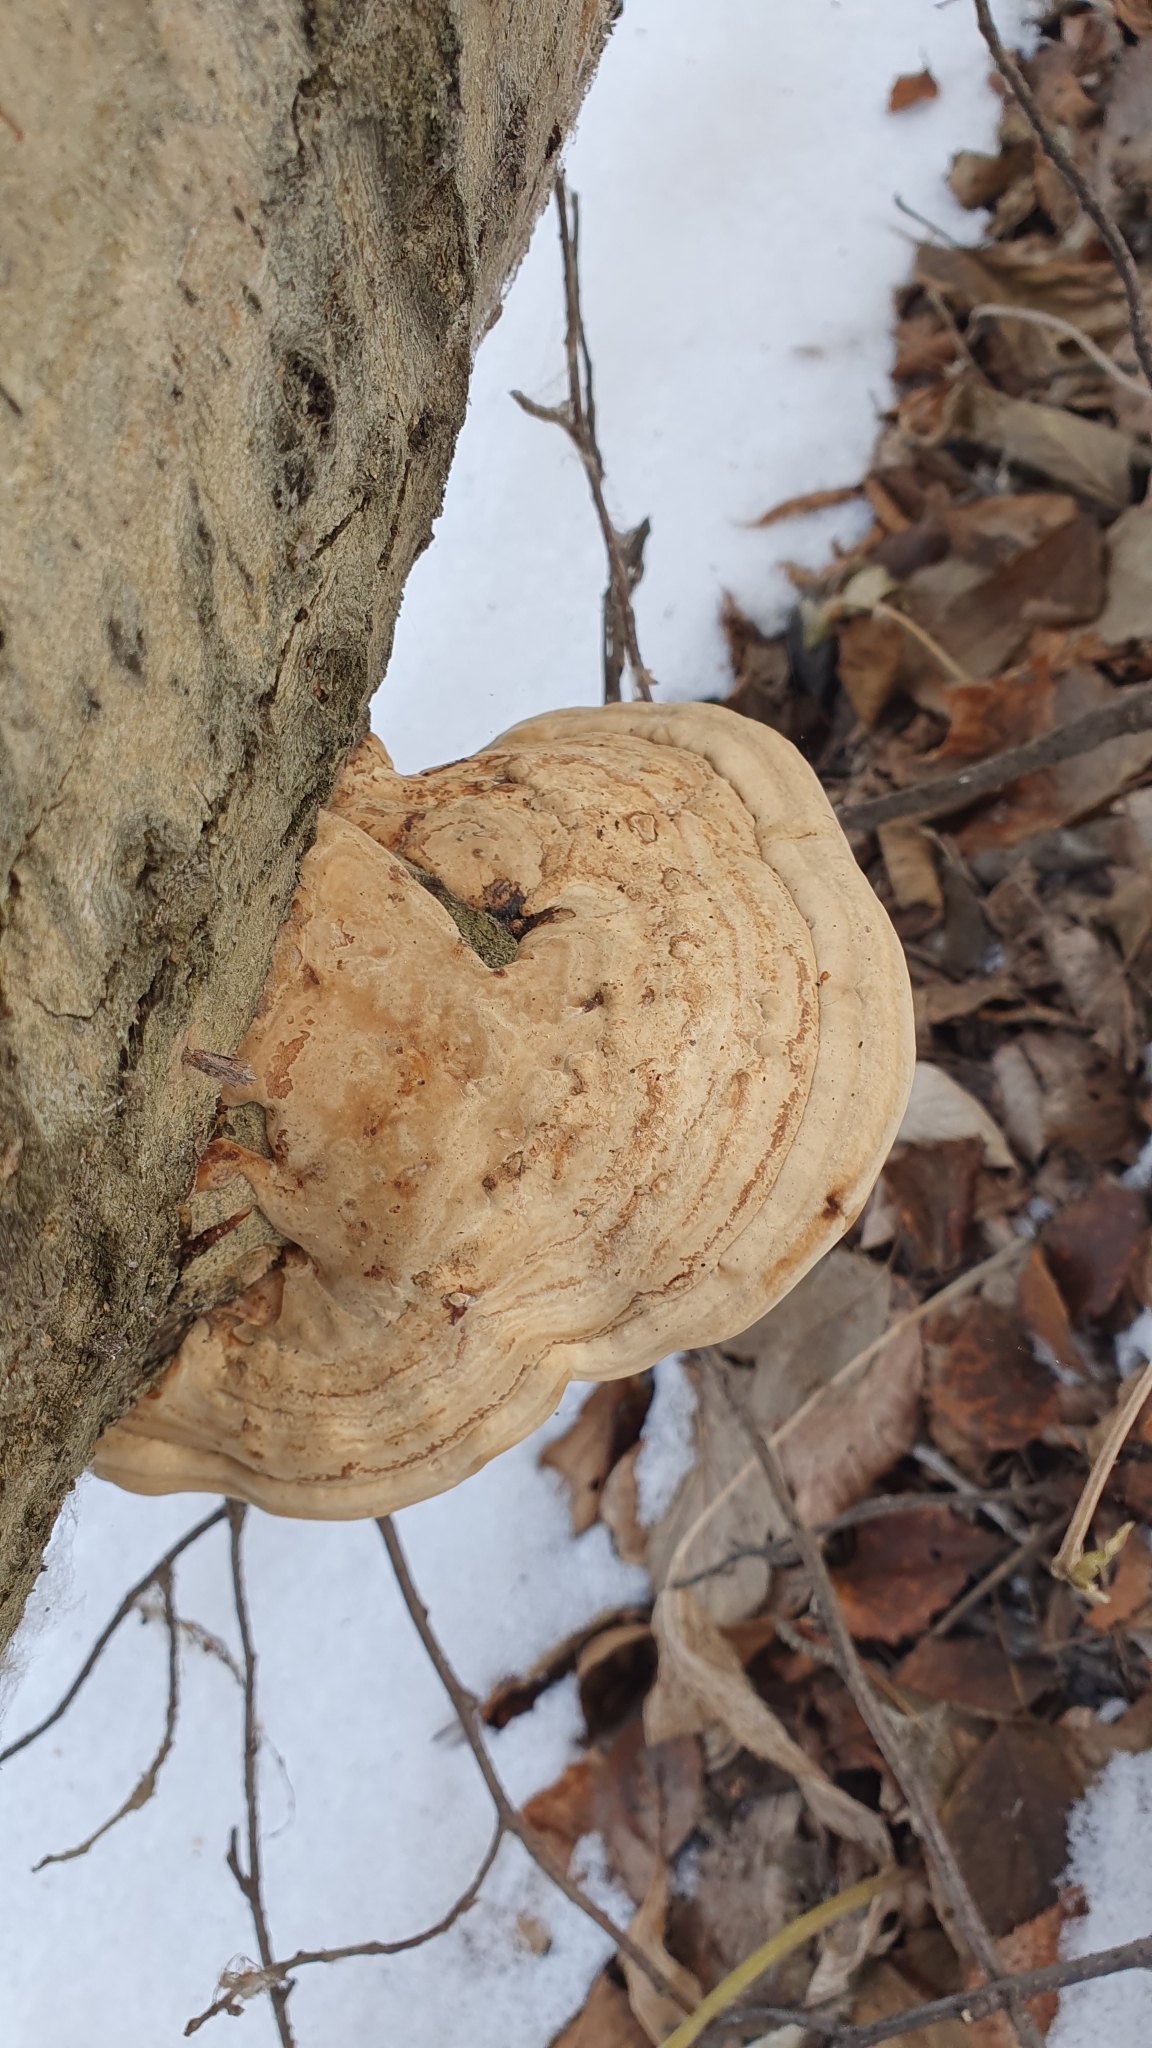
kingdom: Fungi
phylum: Basidiomycota
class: Agaricomycetes
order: Polyporales
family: Polyporaceae
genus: Fomes
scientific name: Fomes fomentarius
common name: Hoof fungus
